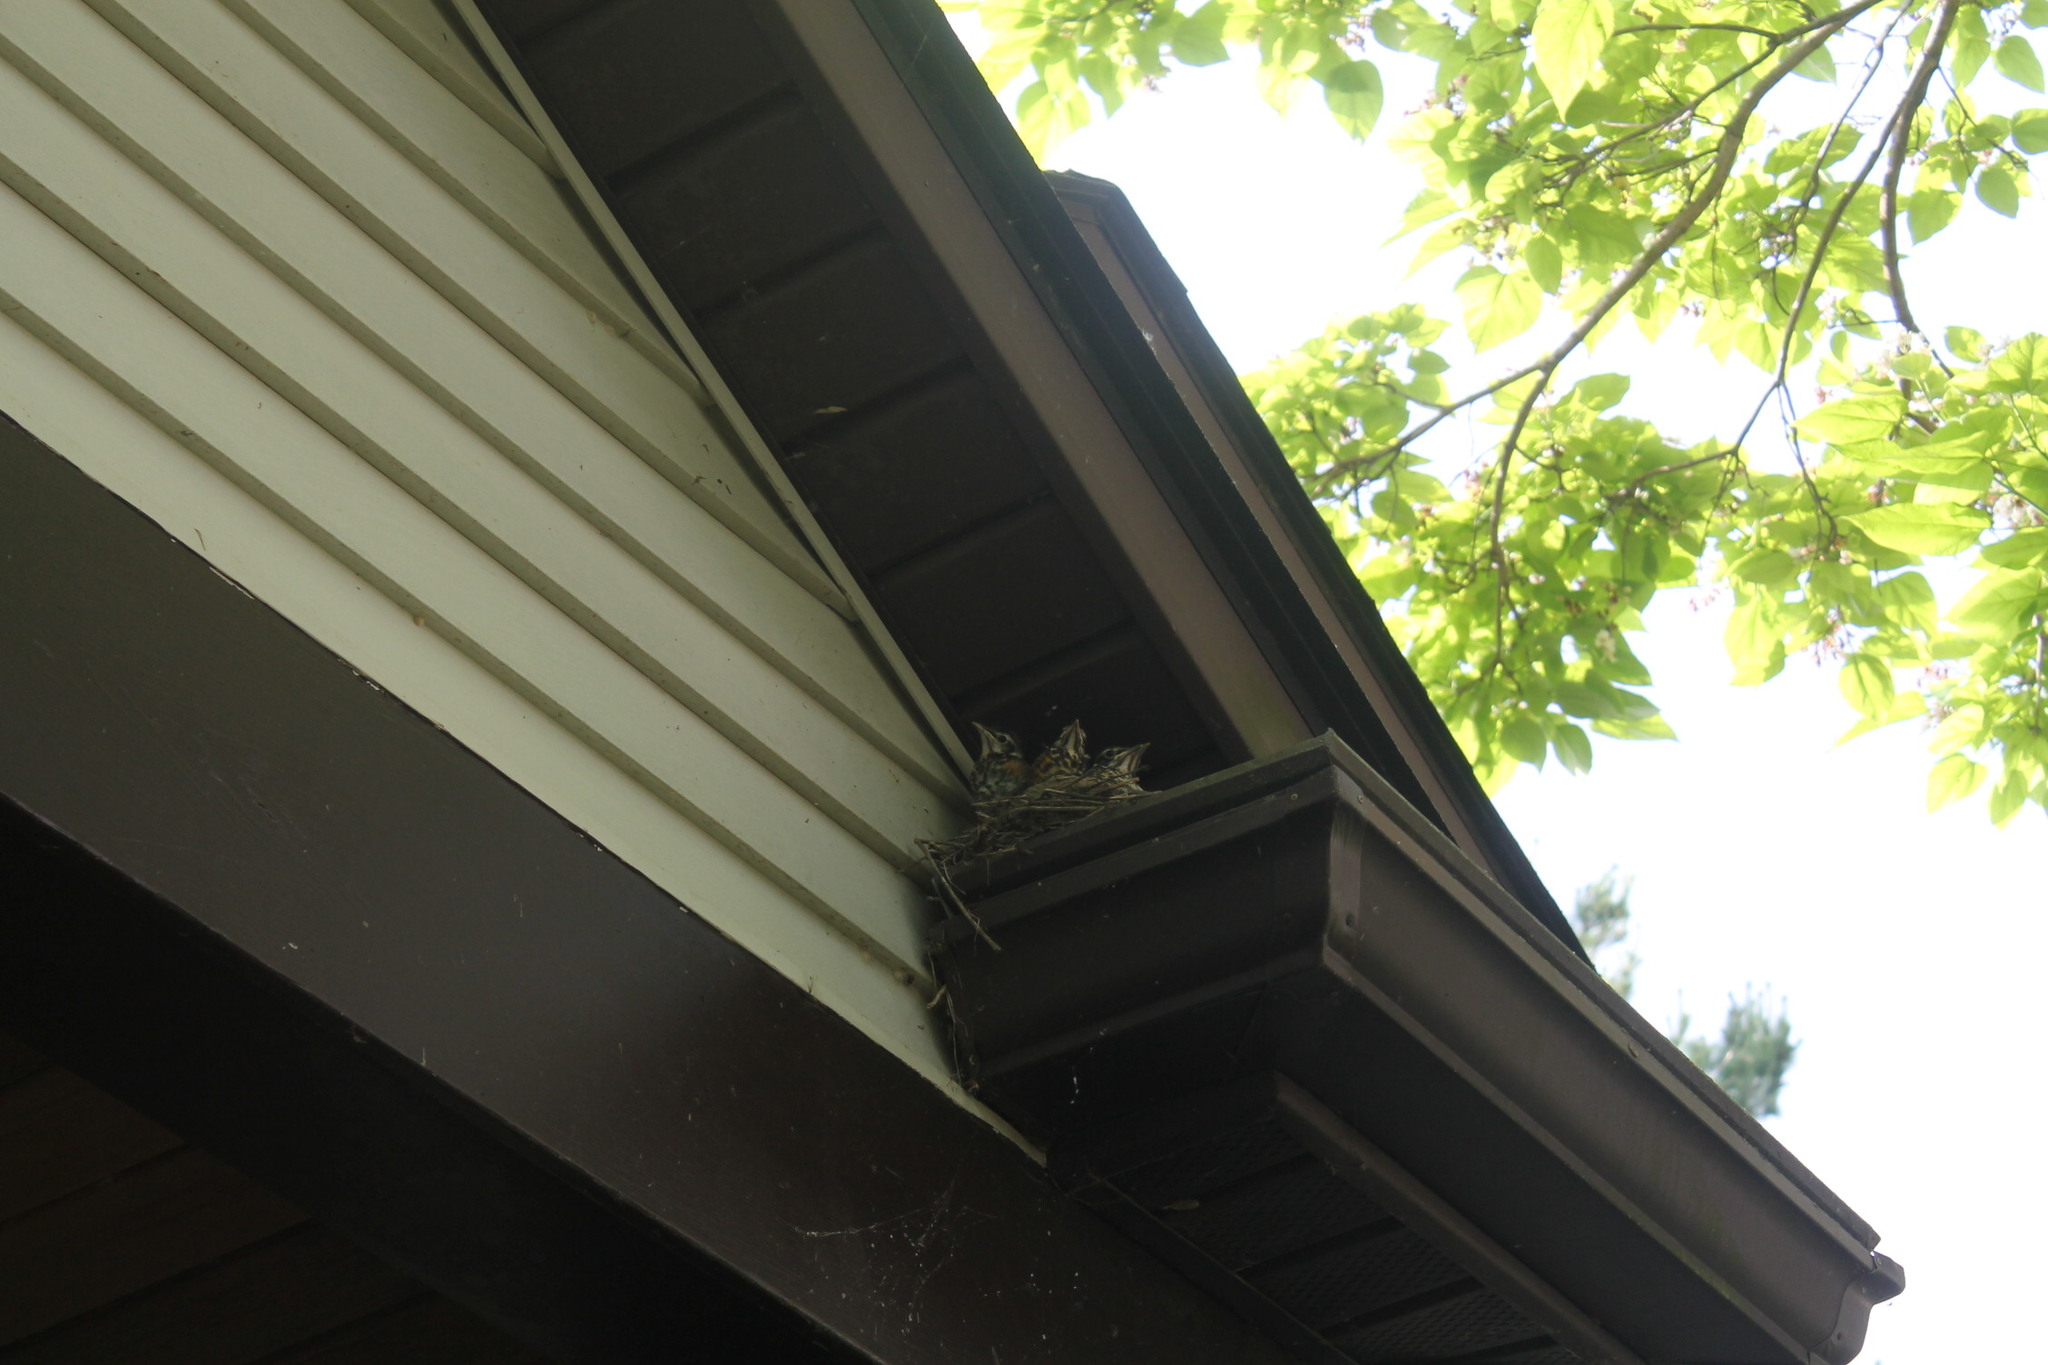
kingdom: Animalia
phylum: Chordata
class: Aves
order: Passeriformes
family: Turdidae
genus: Turdus
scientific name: Turdus migratorius
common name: American robin
